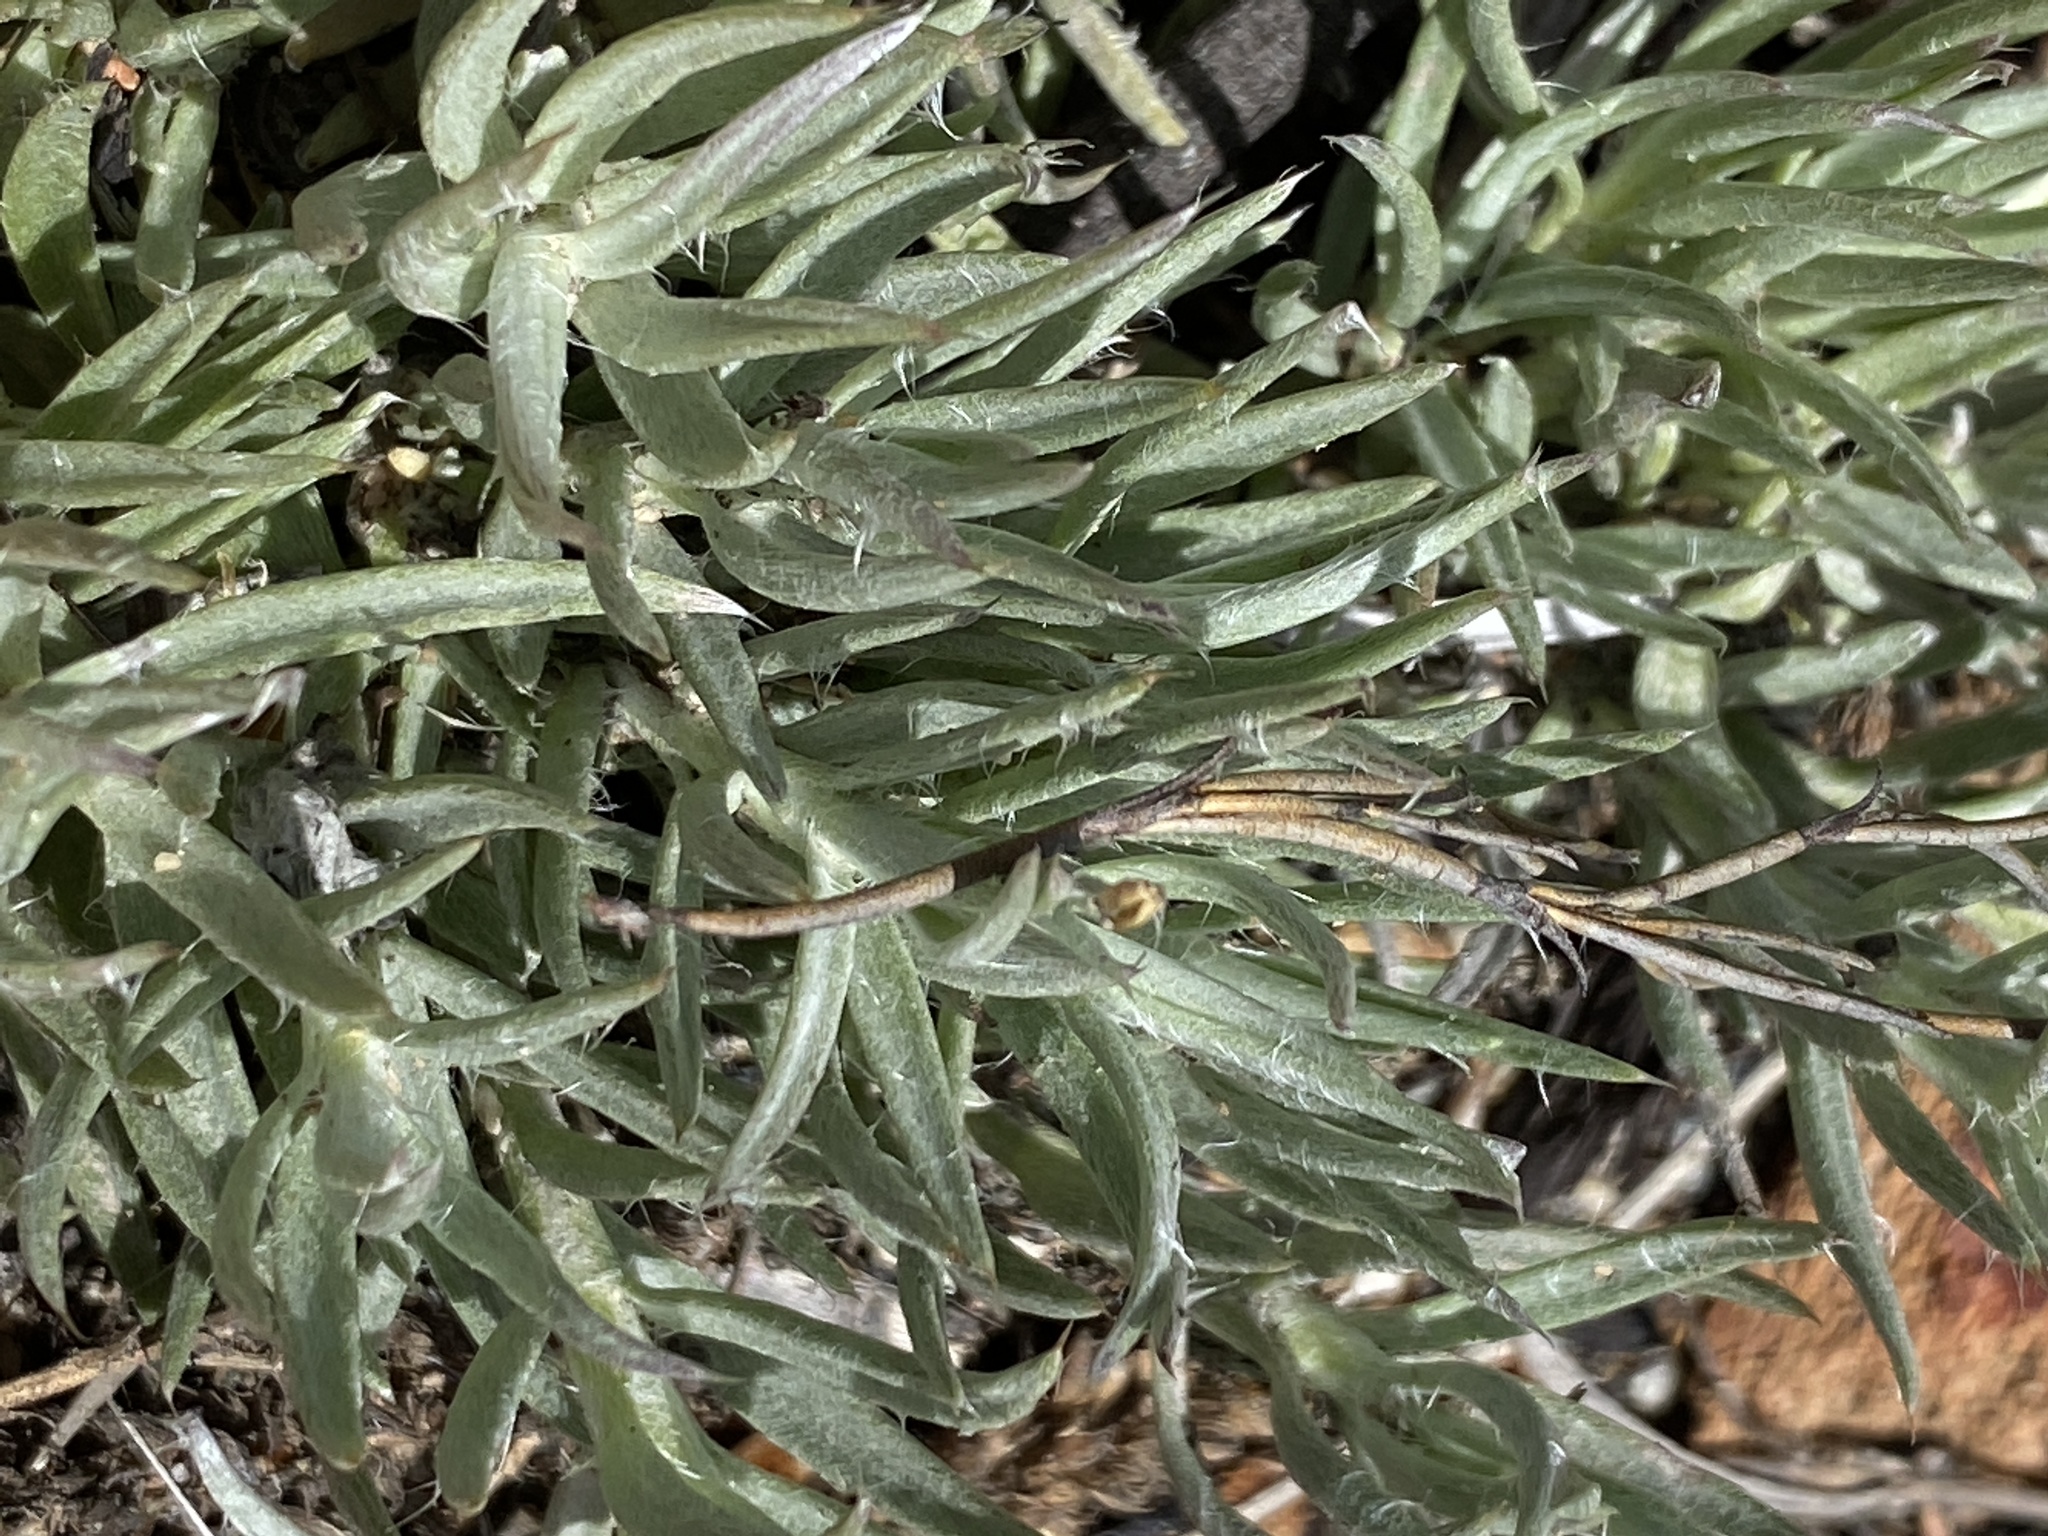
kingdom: Plantae
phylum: Tracheophyta
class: Magnoliopsida
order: Asterales
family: Asteraceae
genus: Achyranthemum
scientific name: Achyranthemum paniculatum
